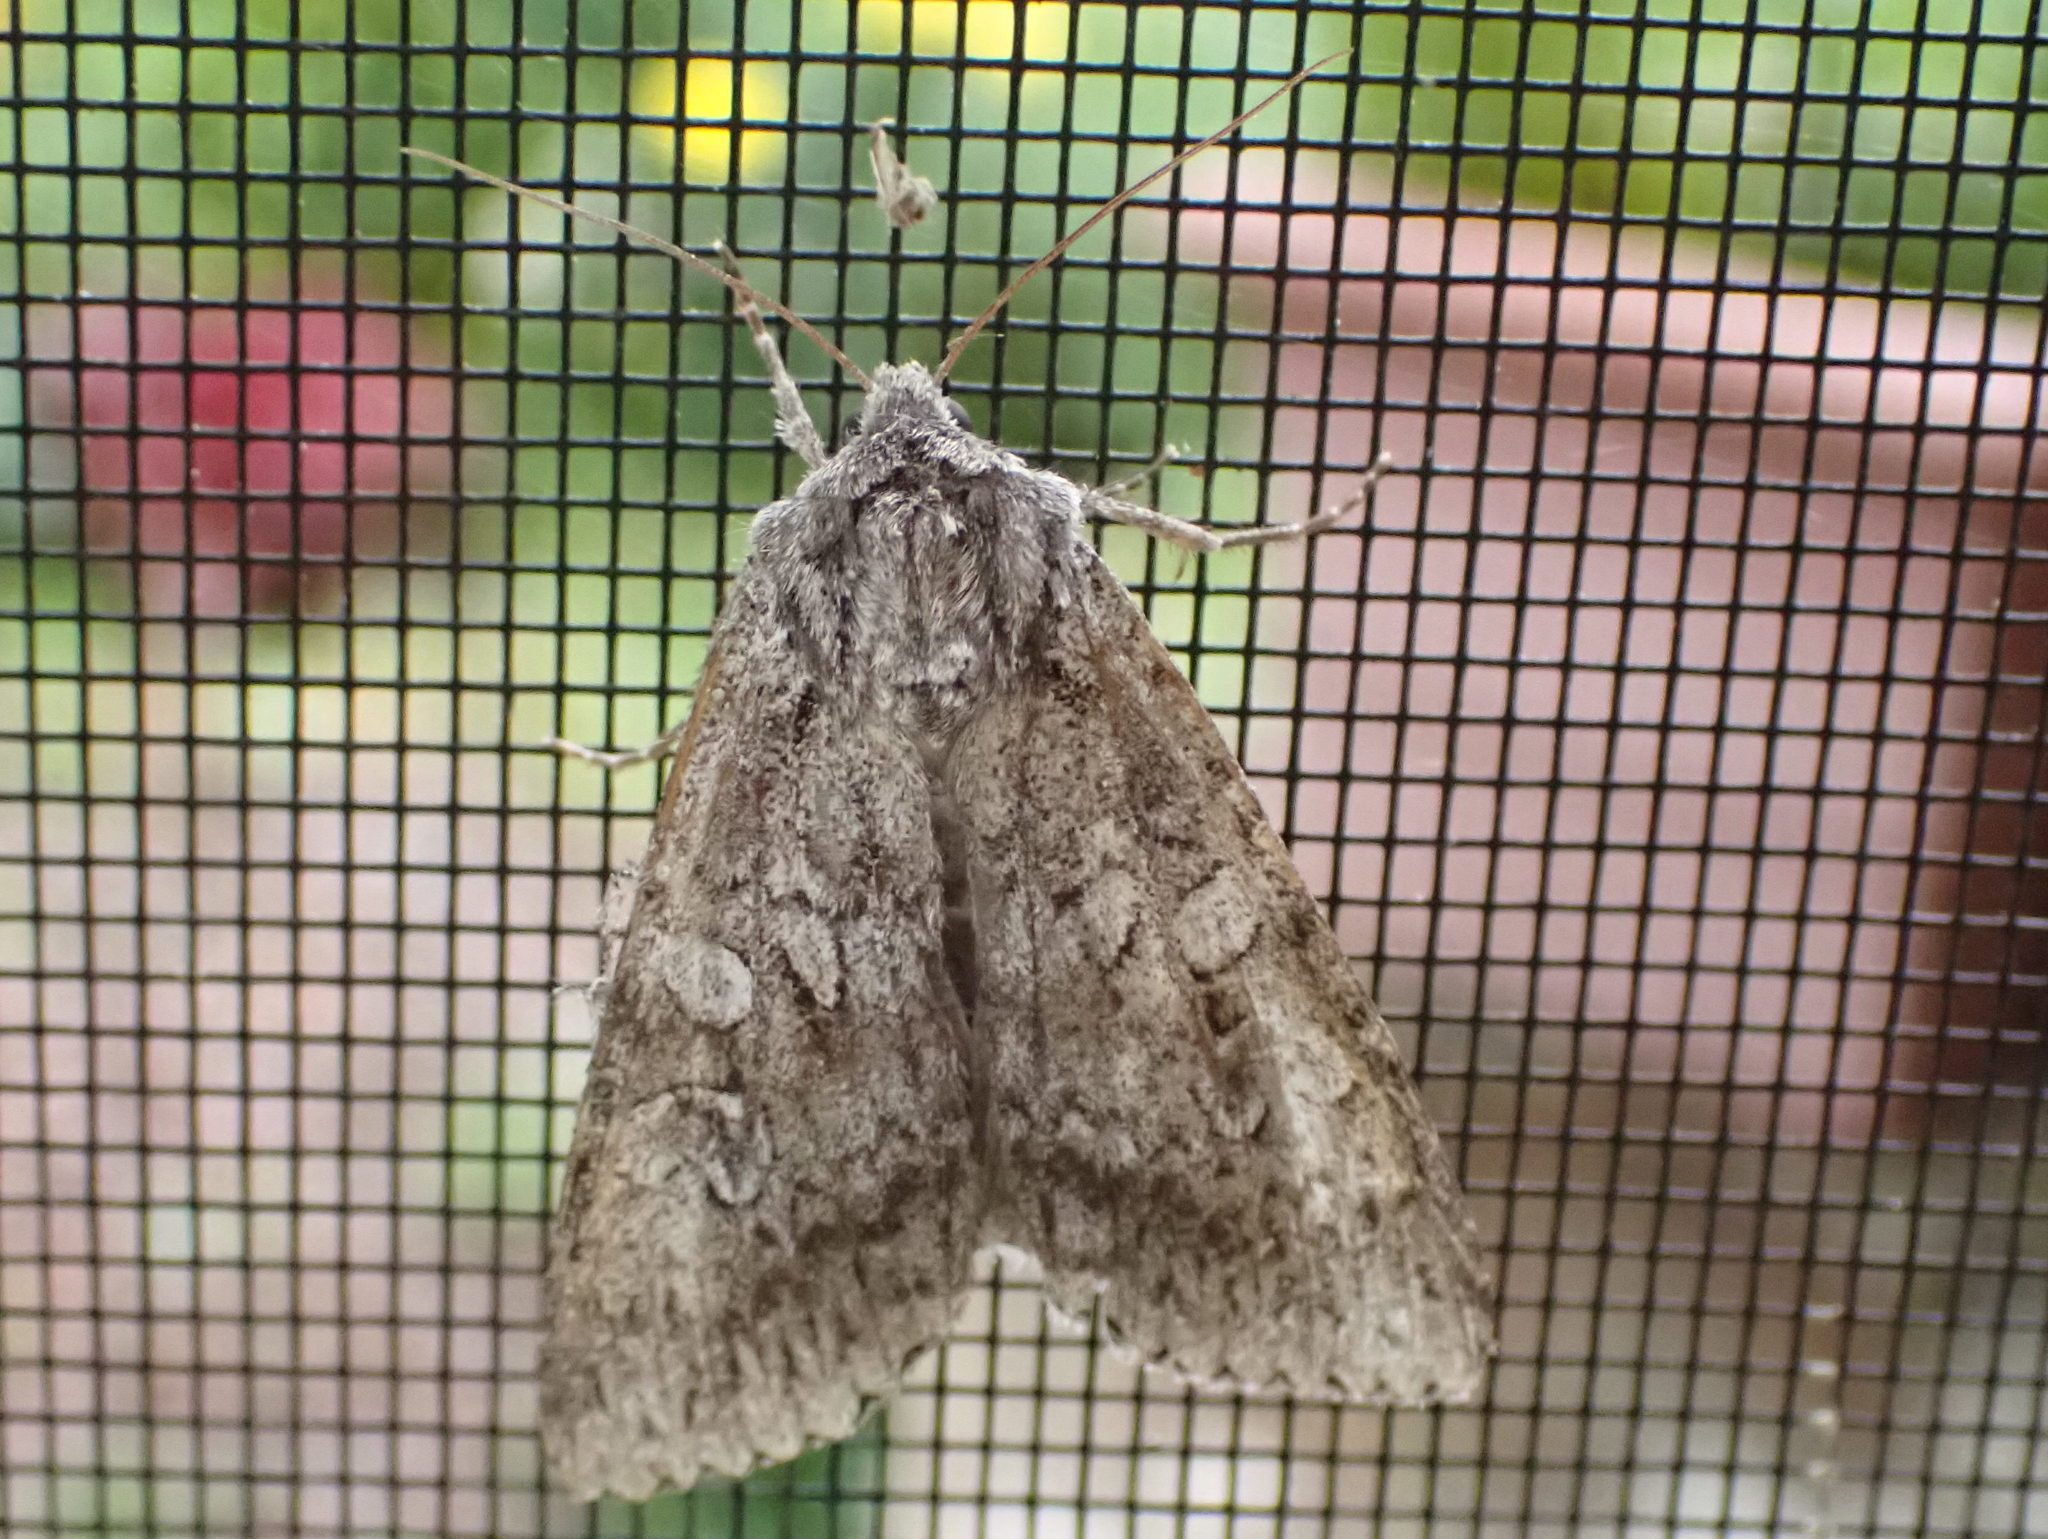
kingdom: Animalia
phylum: Arthropoda
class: Insecta
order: Lepidoptera
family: Noctuidae
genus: Eurois
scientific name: Eurois occulta
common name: Great brocade
